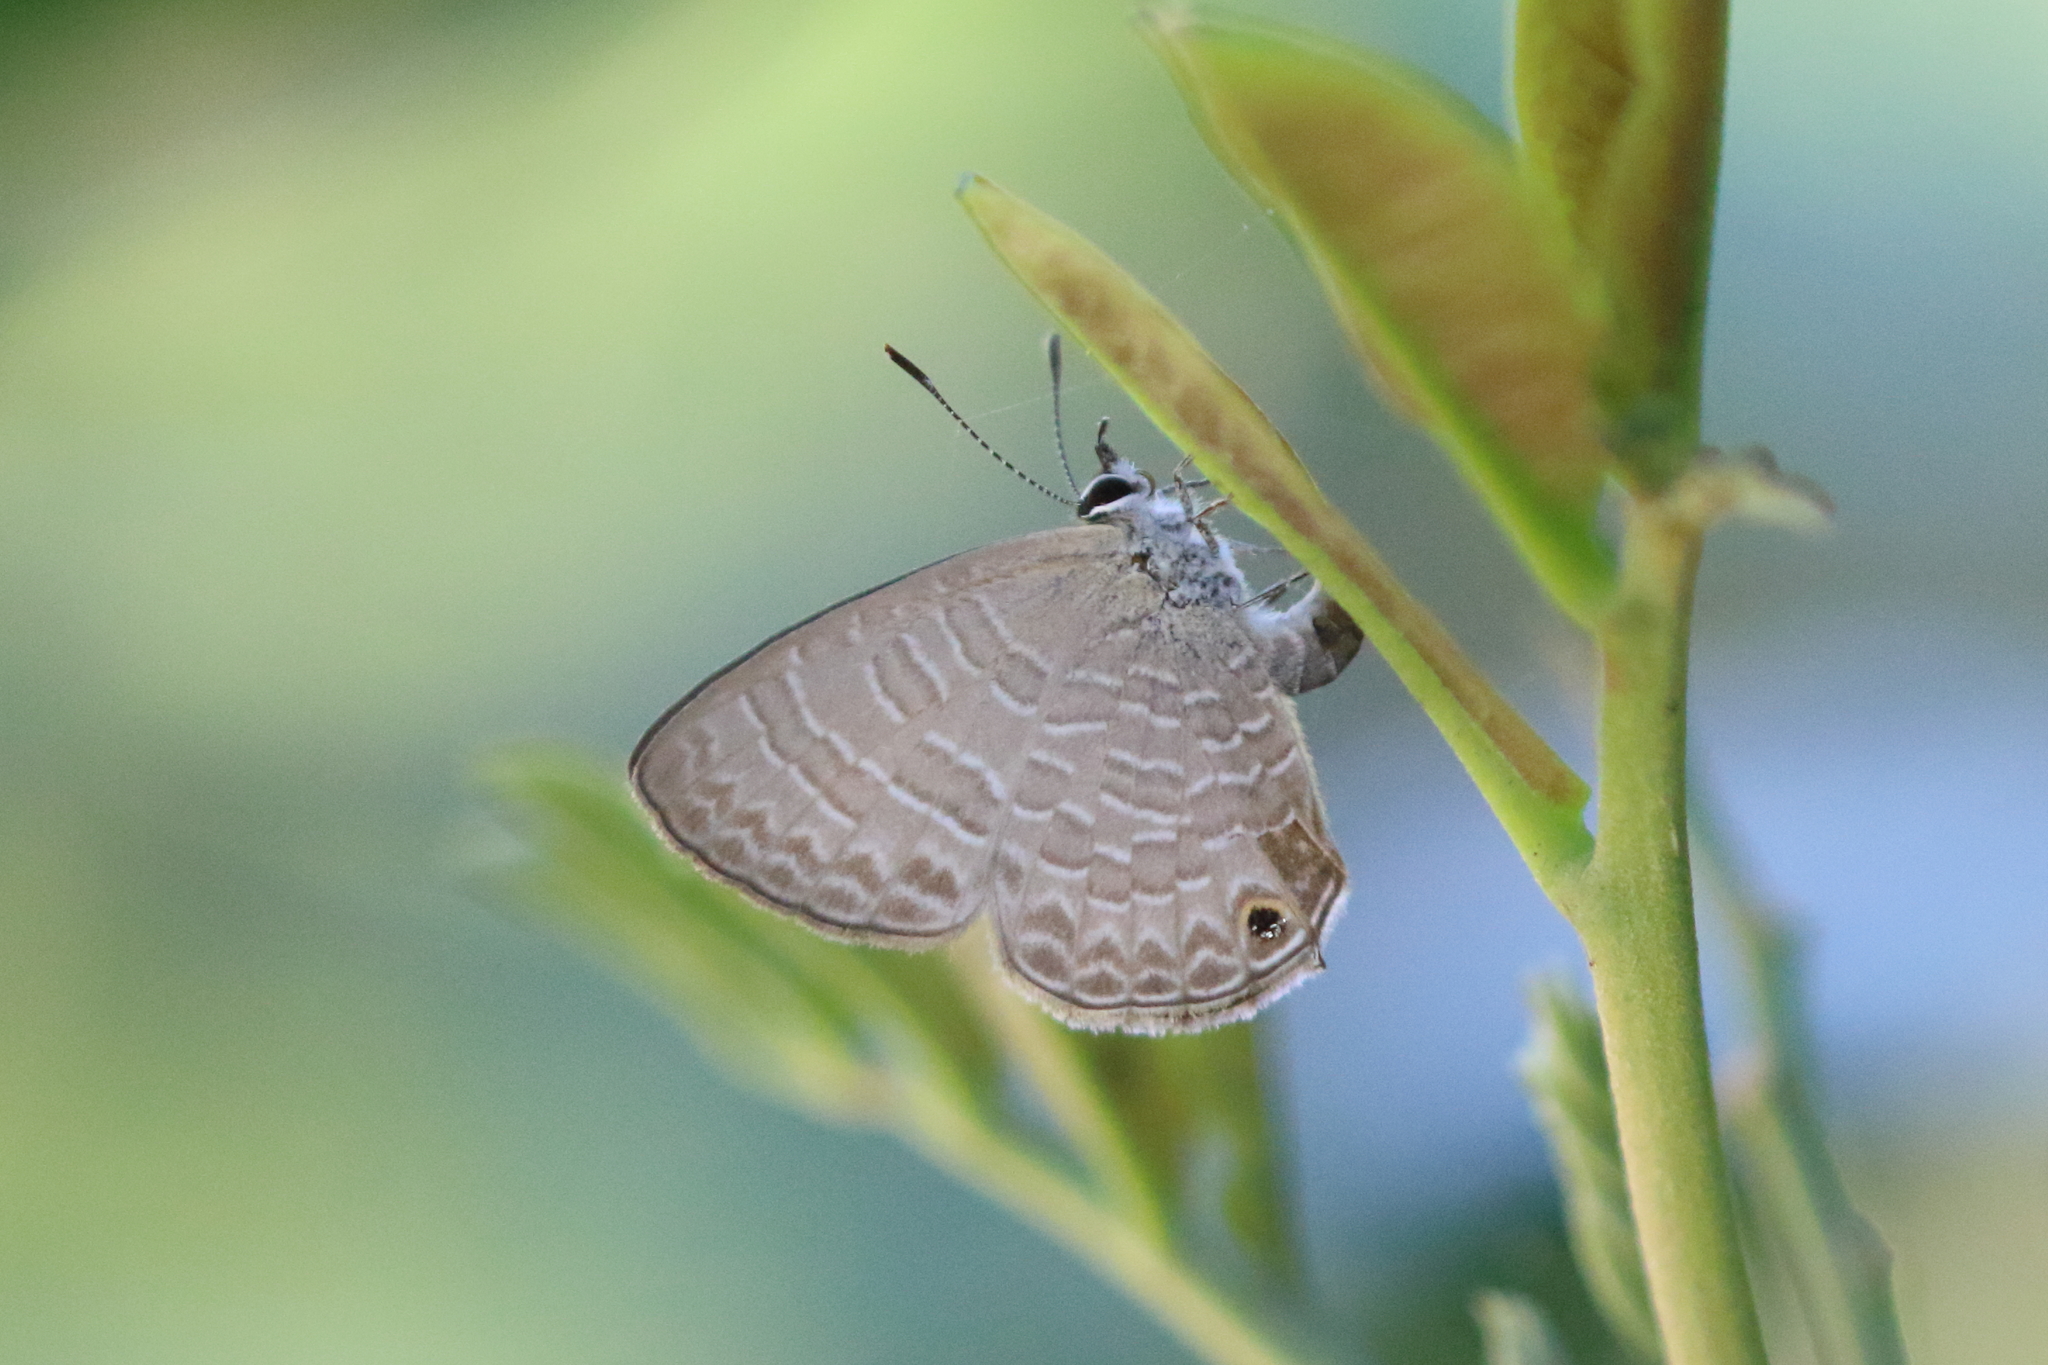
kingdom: Animalia
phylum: Arthropoda
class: Insecta
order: Lepidoptera
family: Lycaenidae
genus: Nacaduba
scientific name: Nacaduba berenice
